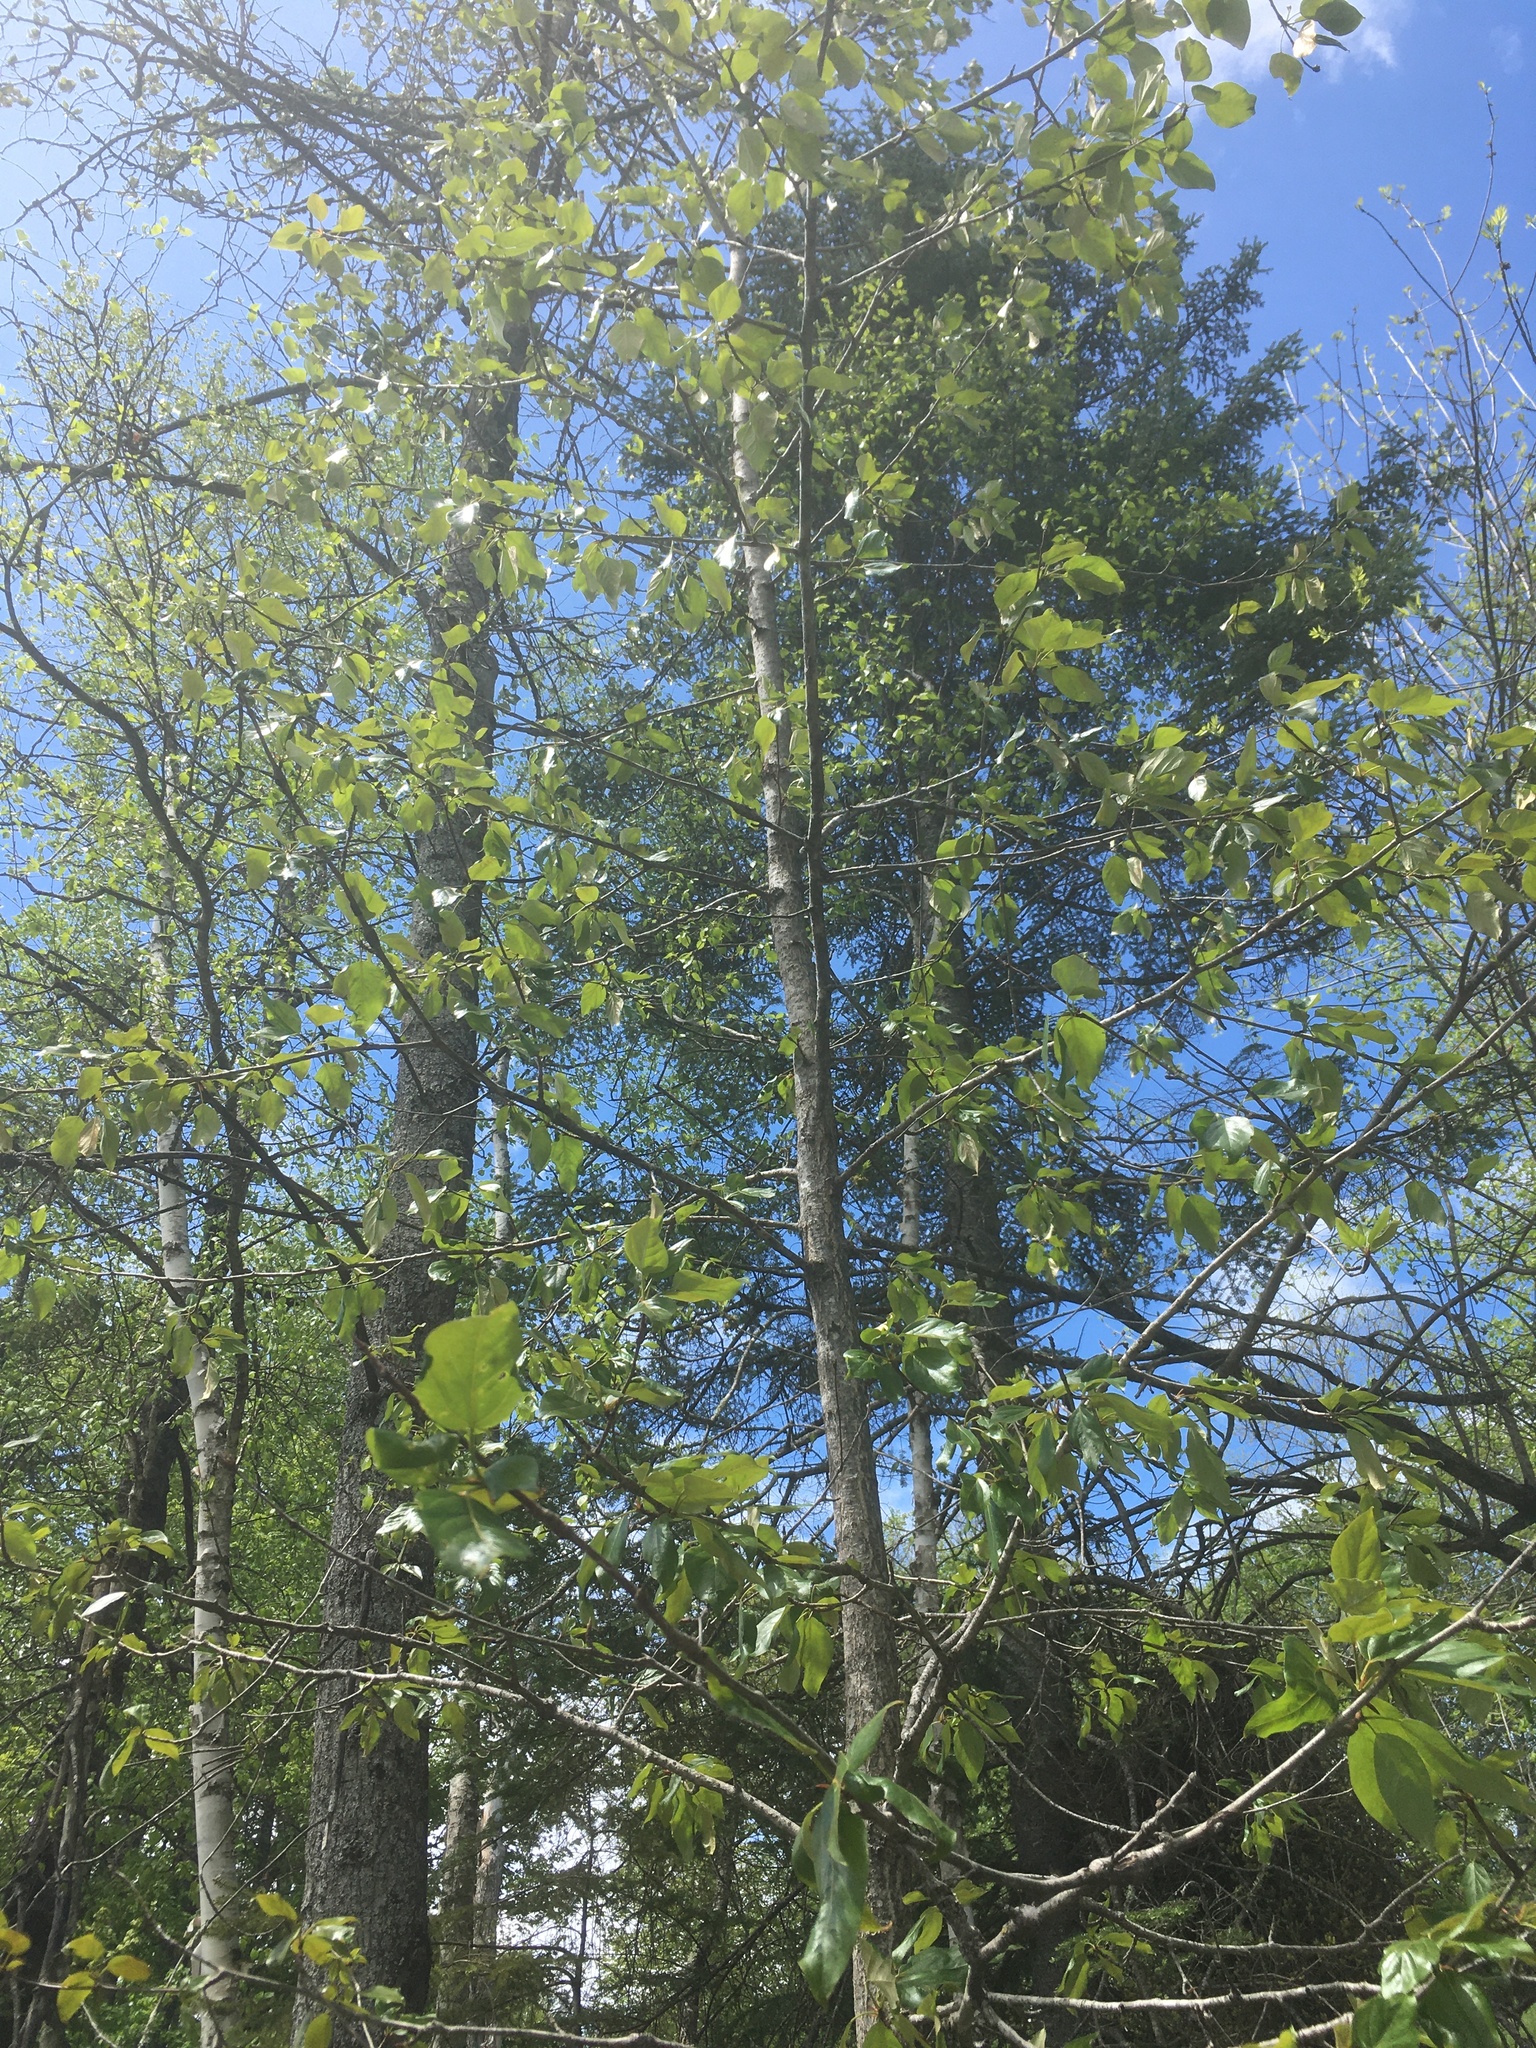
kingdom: Plantae
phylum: Tracheophyta
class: Magnoliopsida
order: Malpighiales
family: Salicaceae
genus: Populus
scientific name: Populus balsamifera
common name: Balsam poplar
